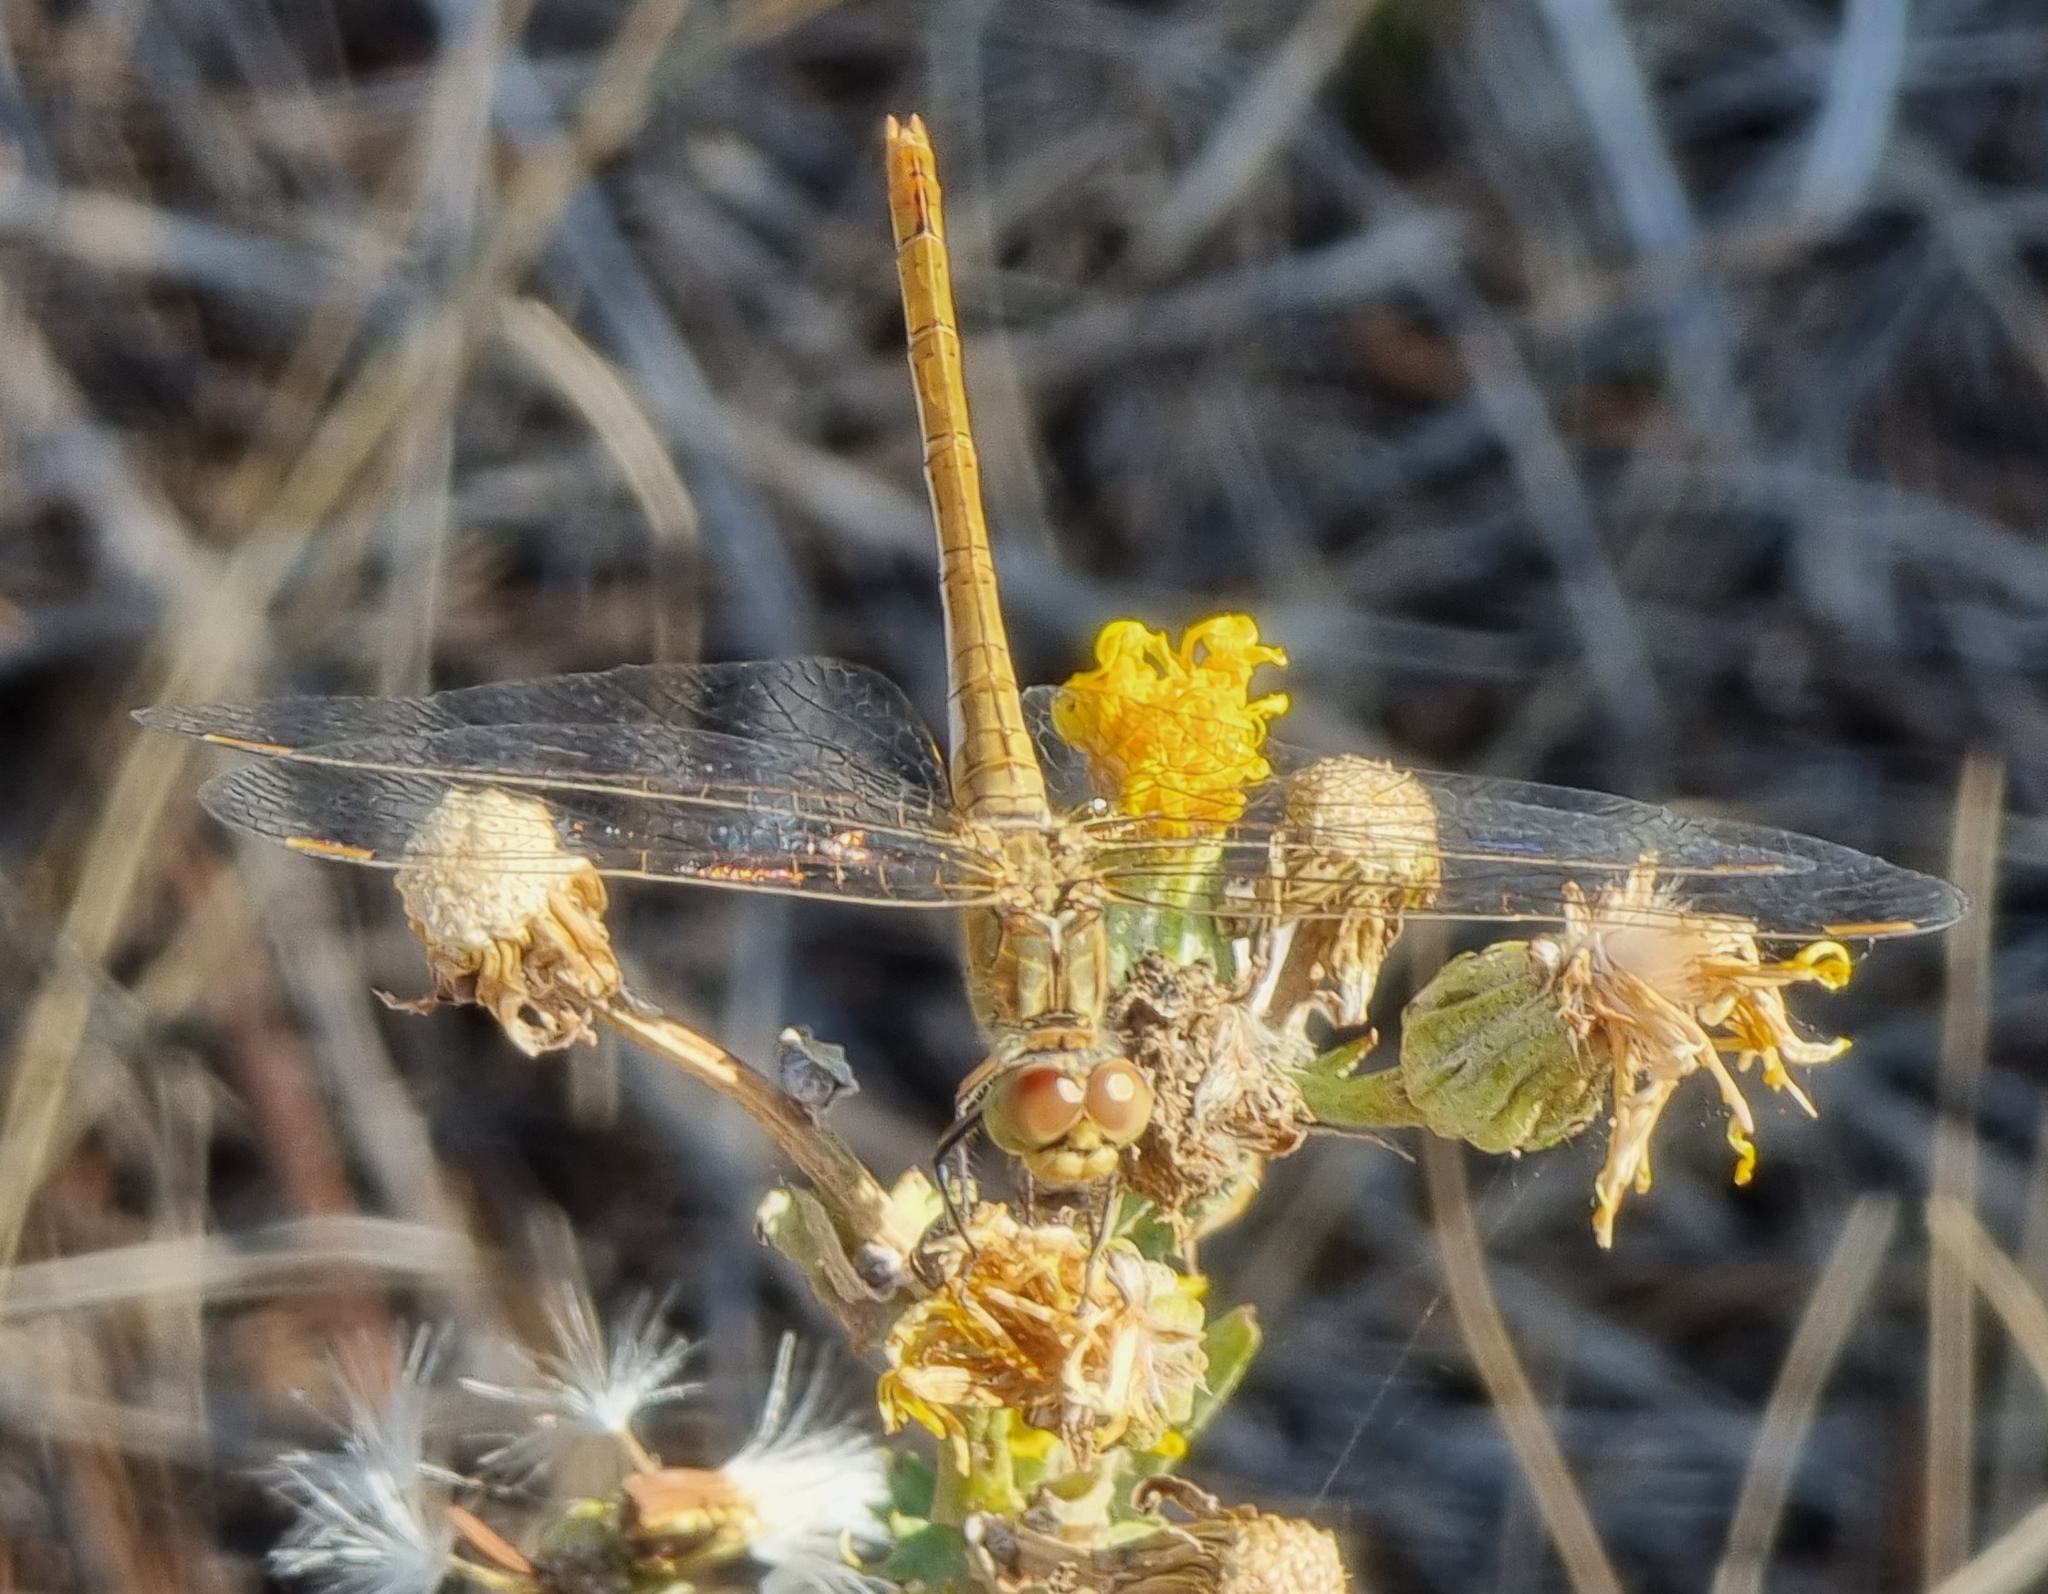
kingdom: Animalia
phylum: Arthropoda
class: Insecta
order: Odonata
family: Libellulidae
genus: Sympetrum
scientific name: Sympetrum meridionale
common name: Southern darter
